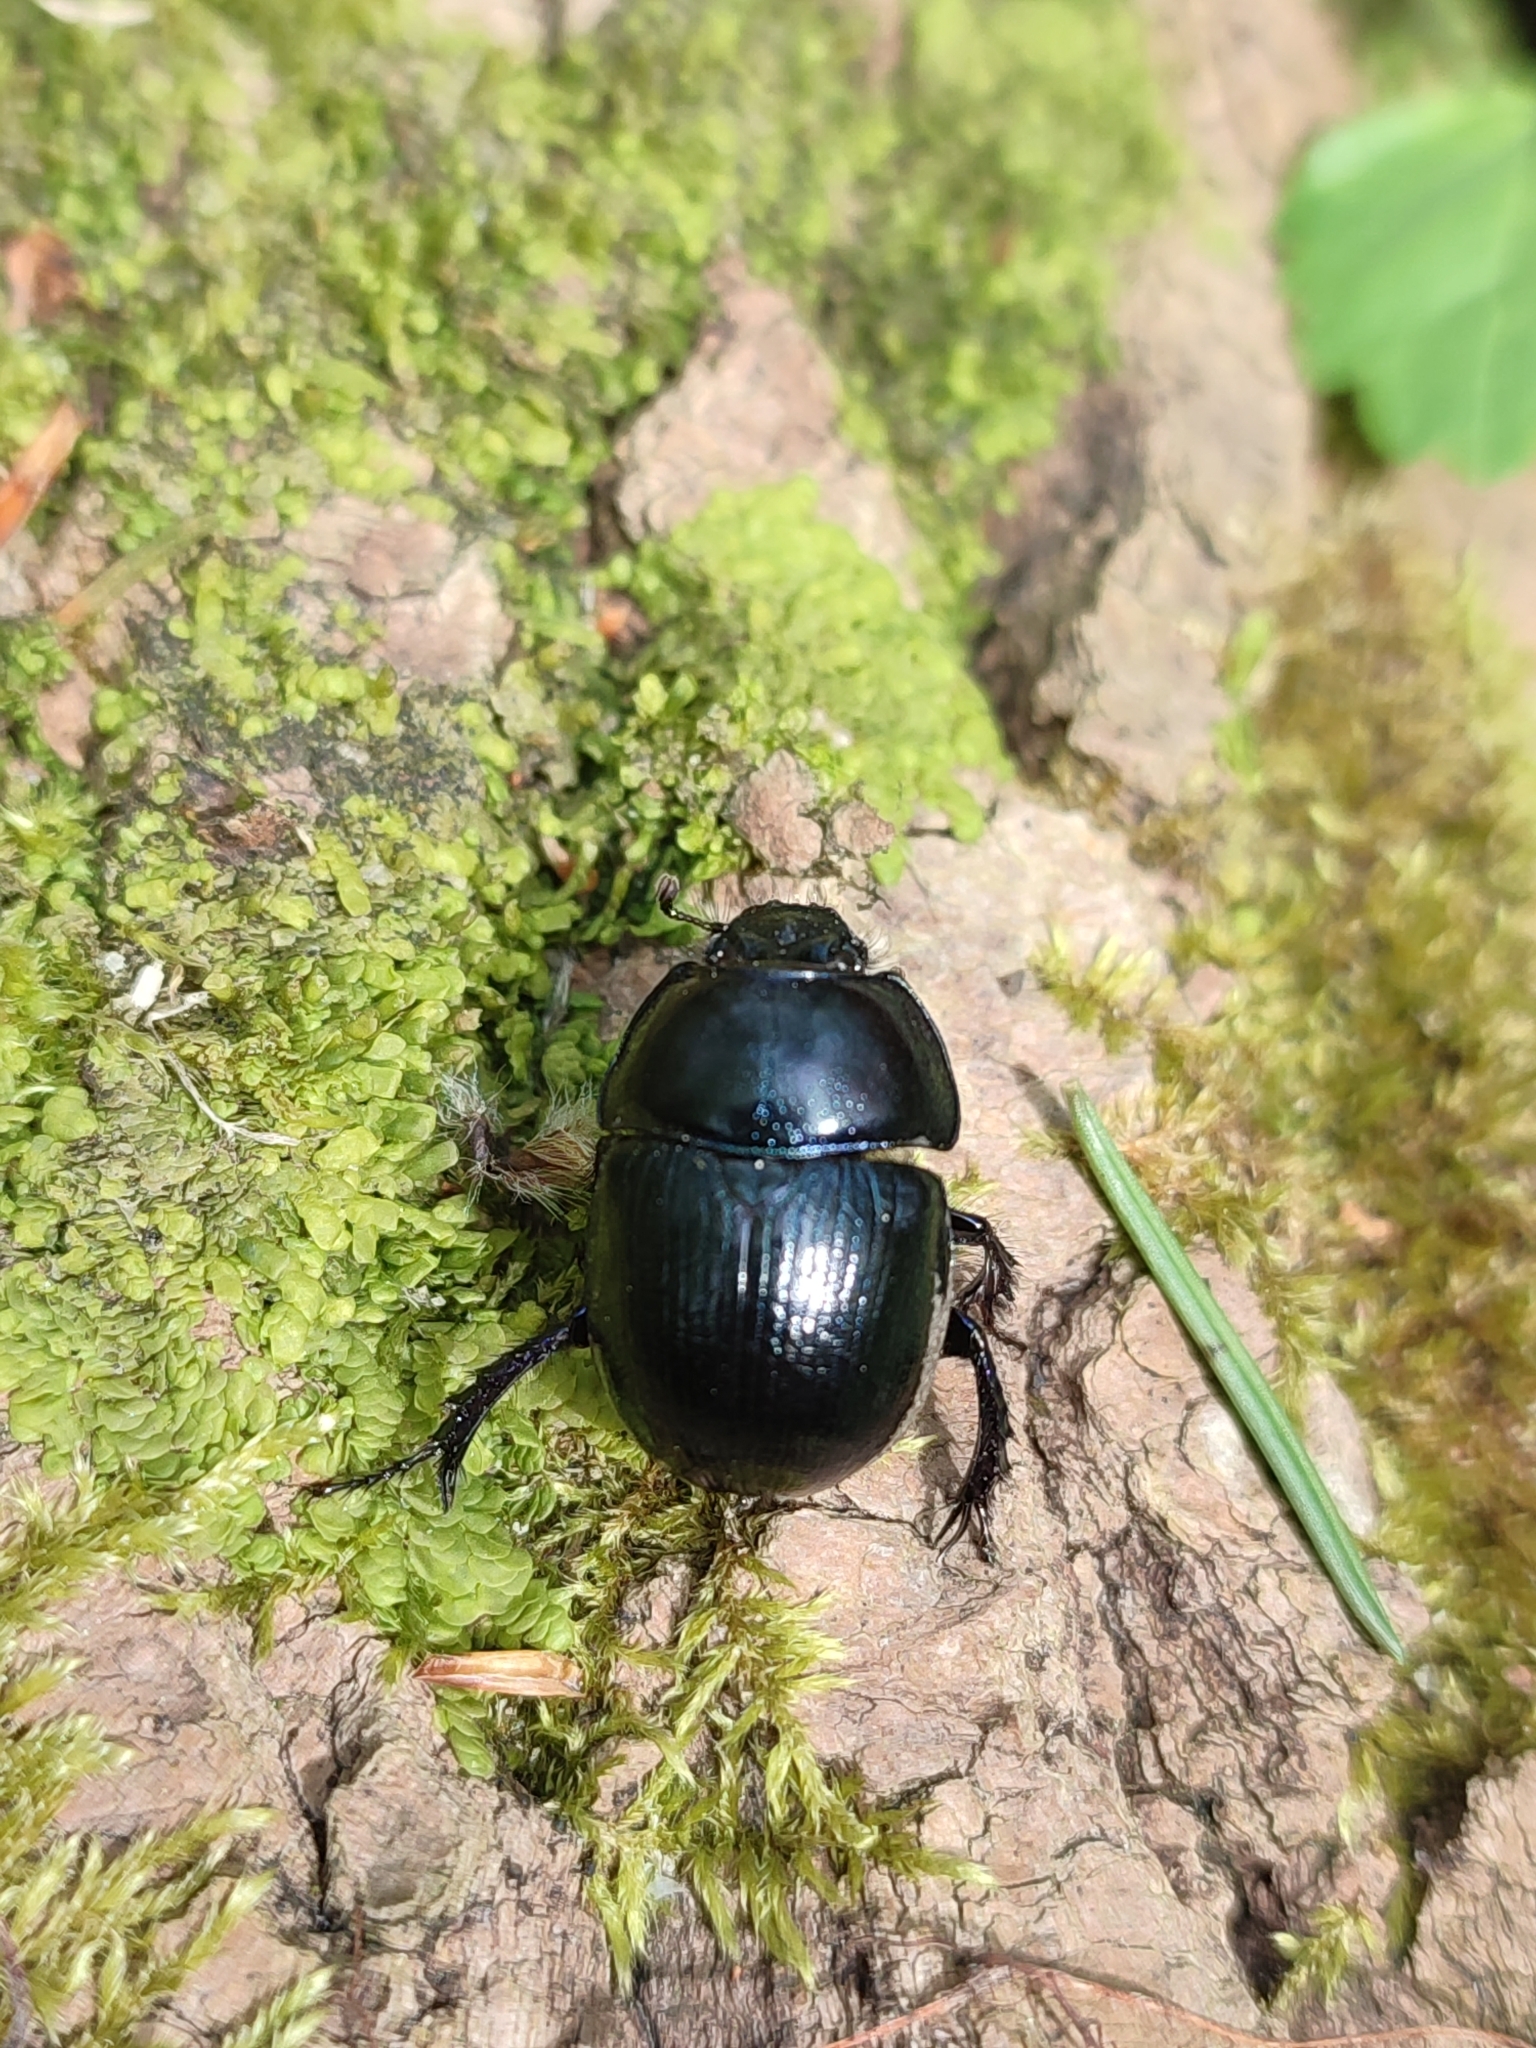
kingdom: Animalia
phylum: Arthropoda
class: Insecta
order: Coleoptera
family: Geotrupidae
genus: Anoplotrupes
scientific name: Anoplotrupes stercorosus
